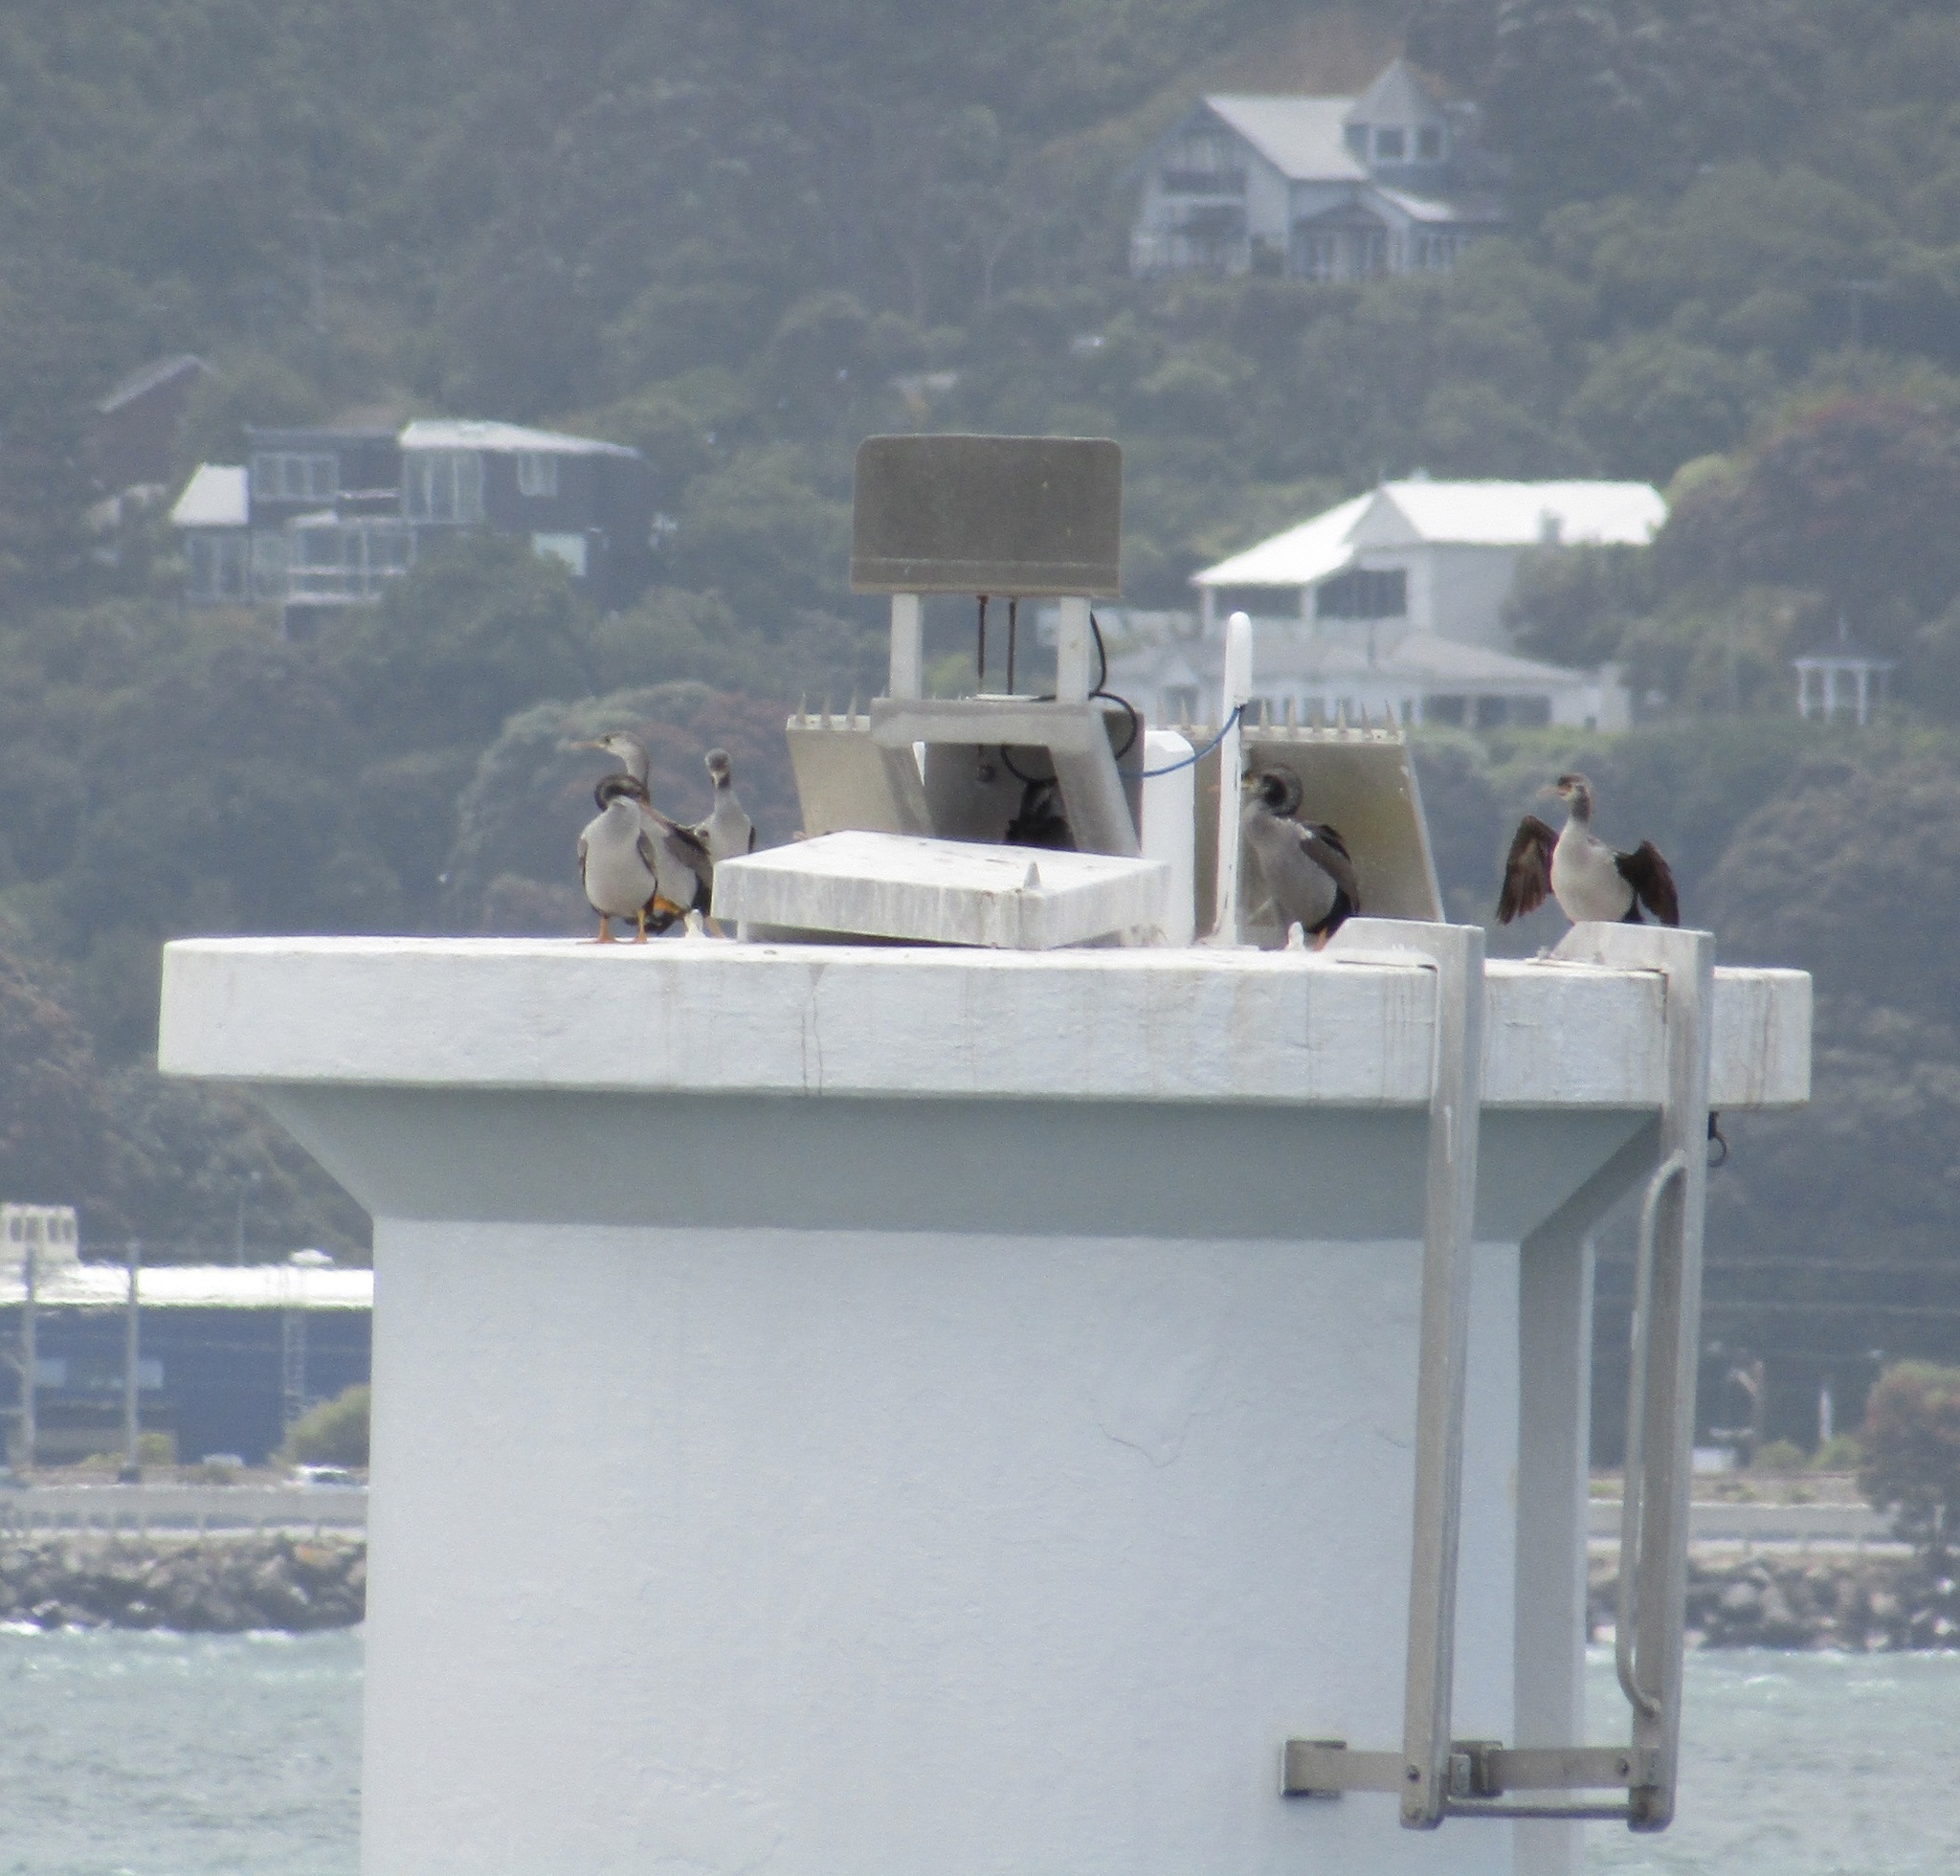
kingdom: Animalia
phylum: Chordata
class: Aves
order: Suliformes
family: Phalacrocoracidae
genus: Phalacrocorax
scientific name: Phalacrocorax punctatus
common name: Spotted shag
